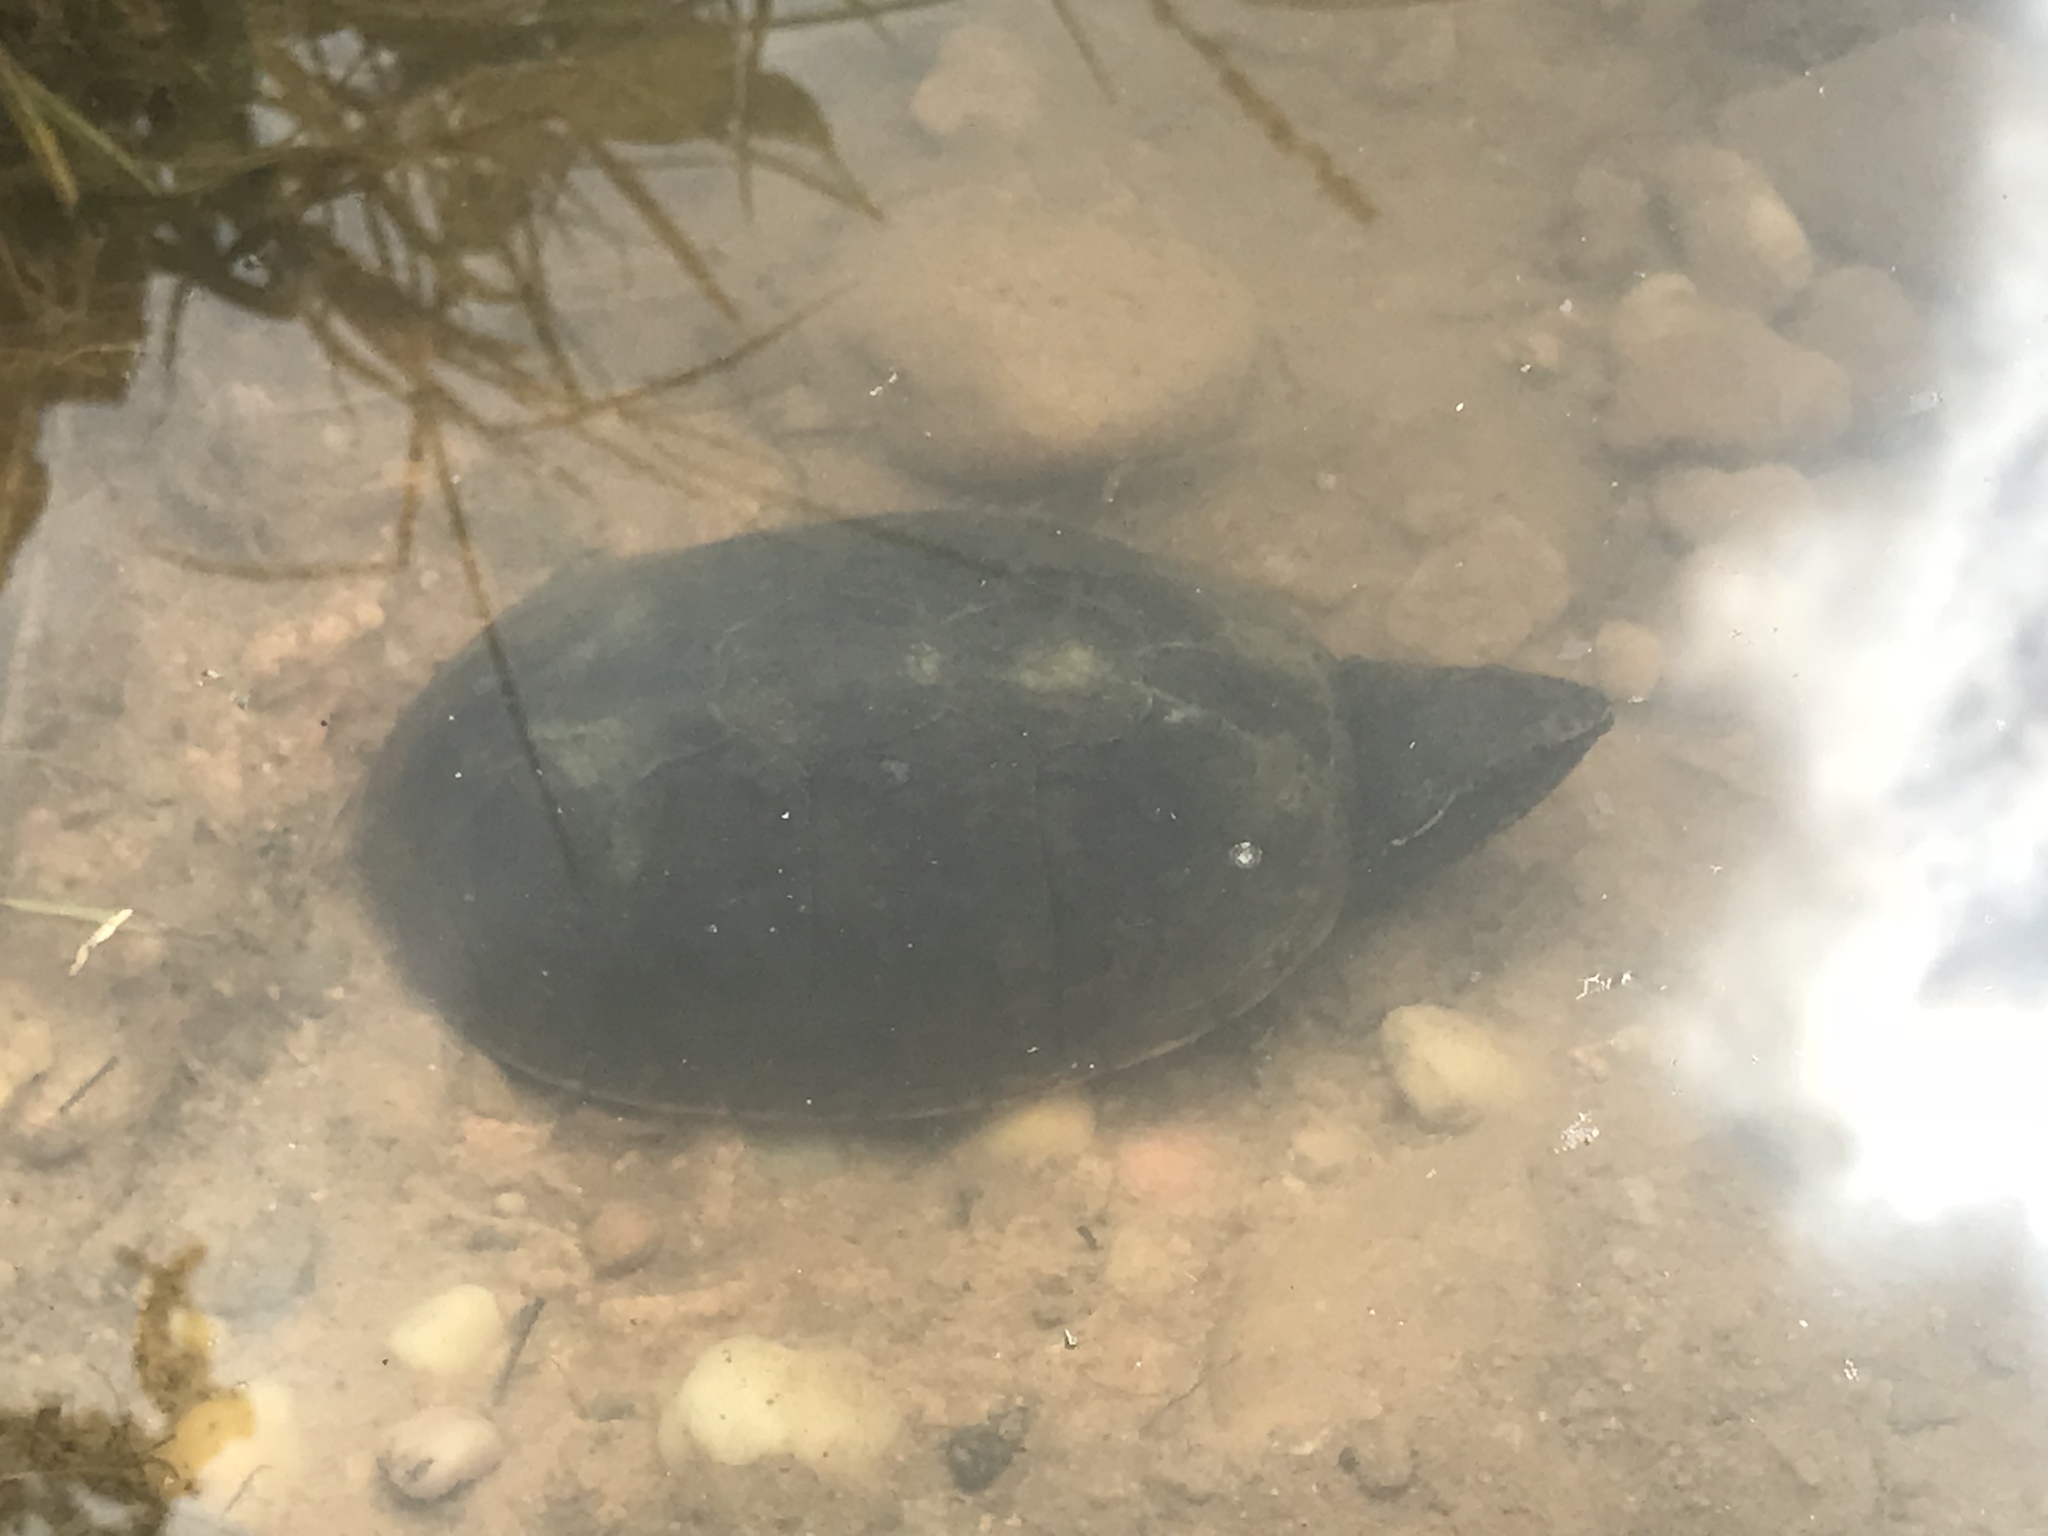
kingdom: Animalia
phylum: Chordata
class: Testudines
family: Kinosternidae
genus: Sternotherus
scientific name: Sternotherus odoratus
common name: Common musk turtle
